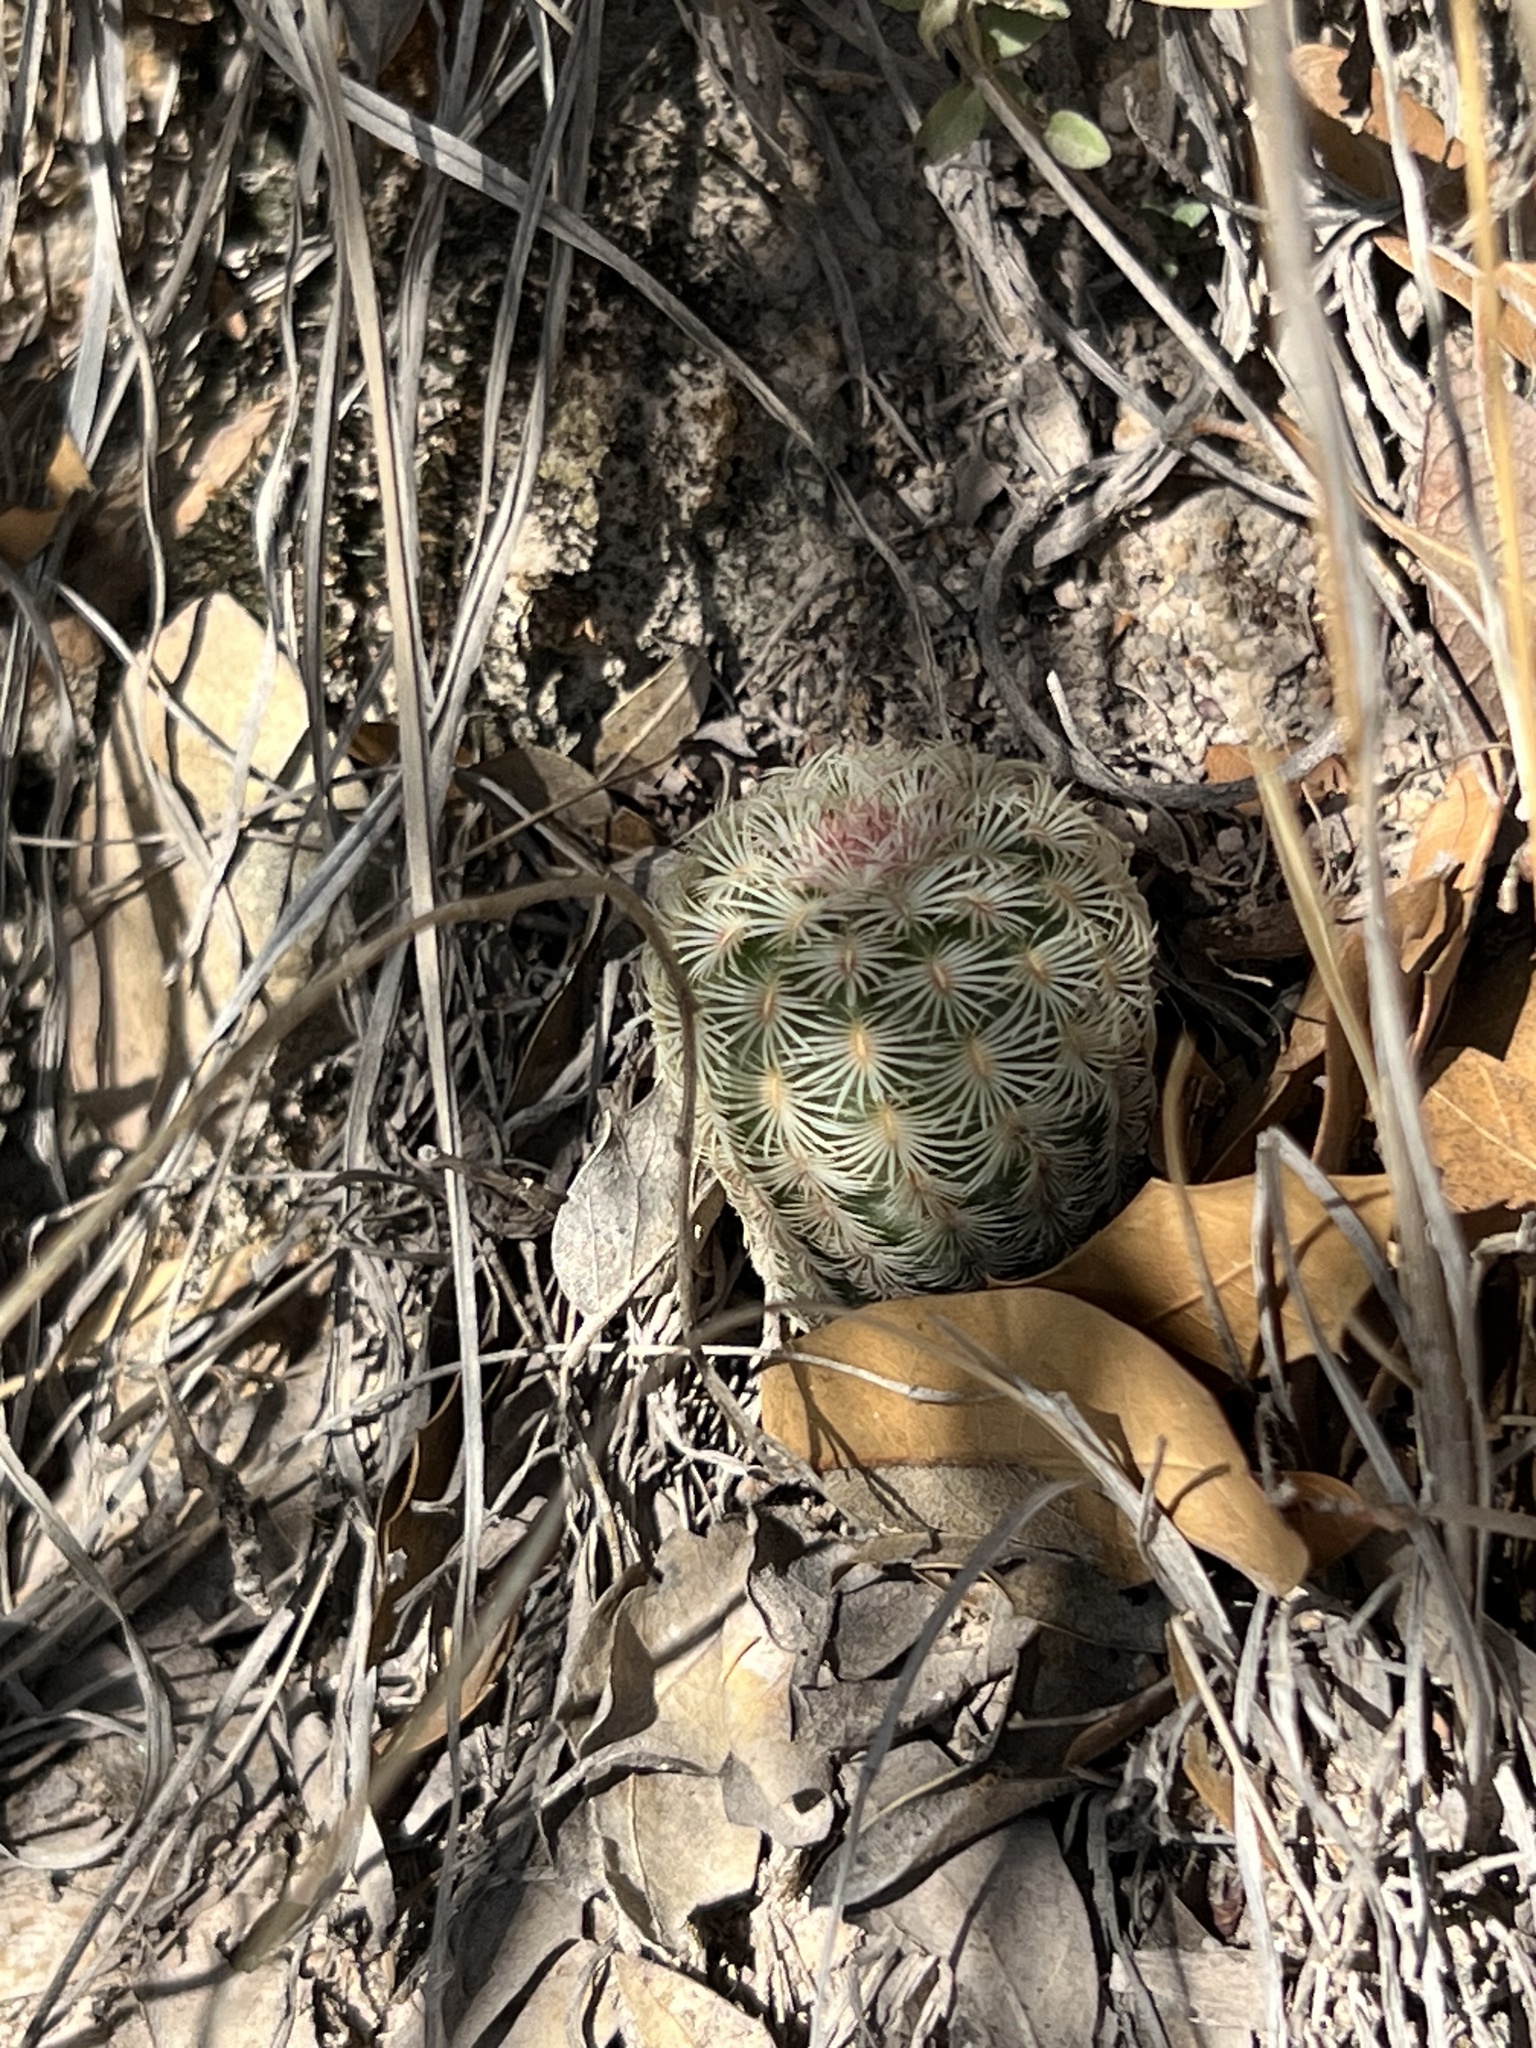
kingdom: Plantae
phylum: Tracheophyta
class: Magnoliopsida
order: Caryophyllales
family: Cactaceae
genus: Echinocereus
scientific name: Echinocereus rigidissimus
